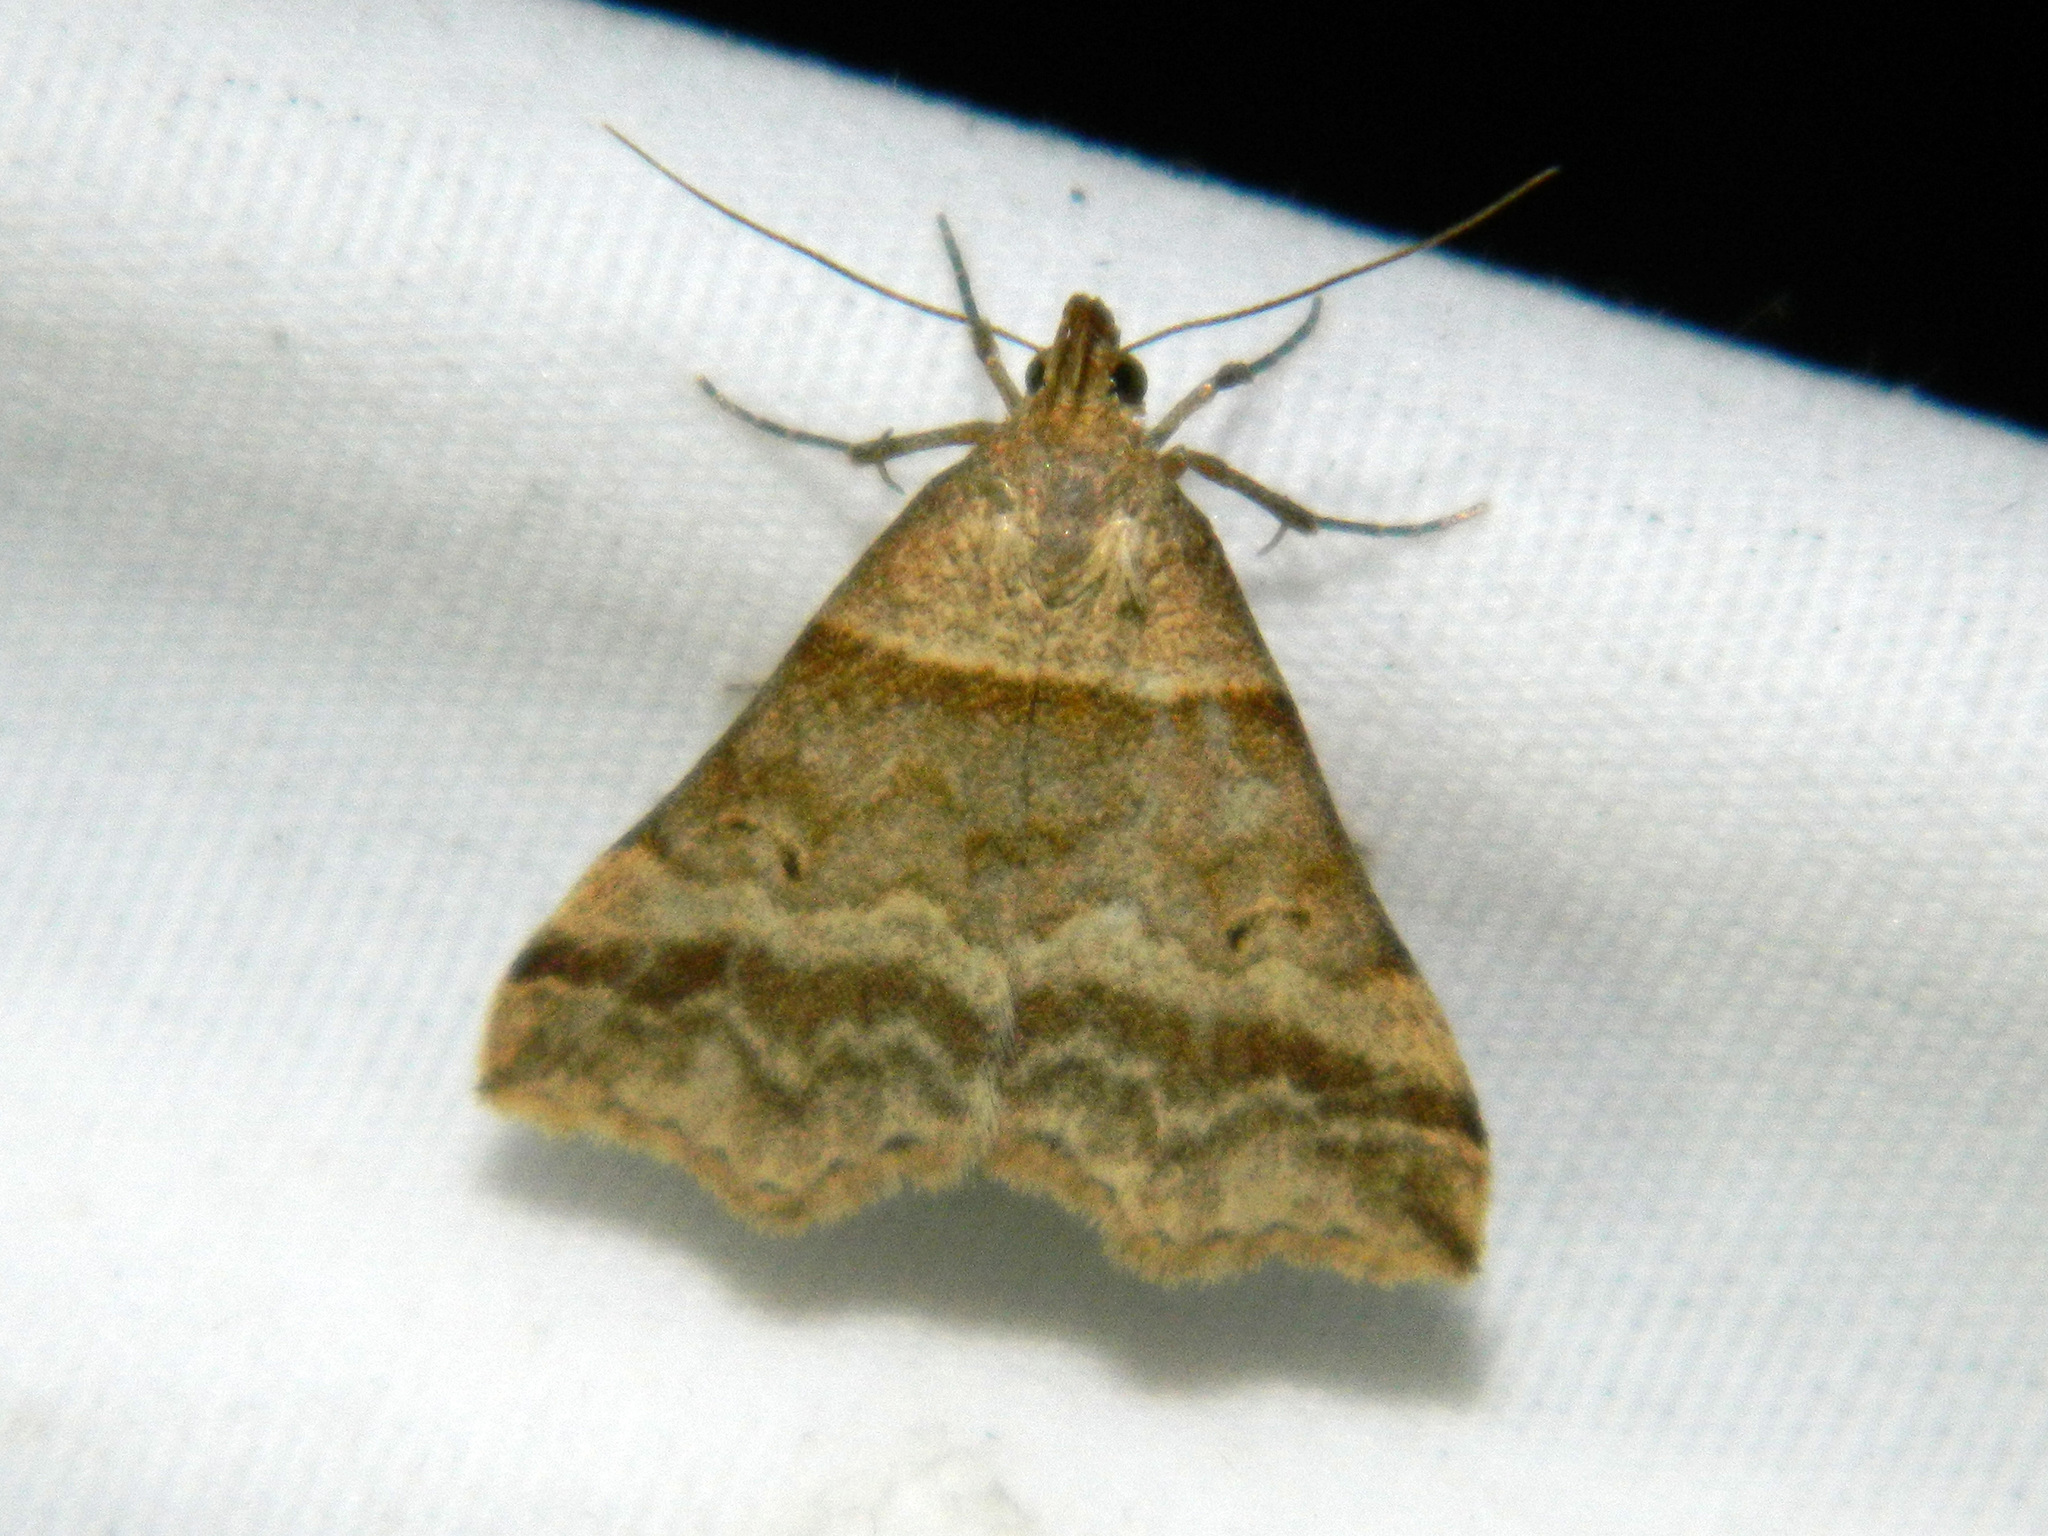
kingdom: Animalia
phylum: Arthropoda
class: Insecta
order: Lepidoptera
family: Erebidae
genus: Phaeolita
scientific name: Phaeolita pyramusalis
